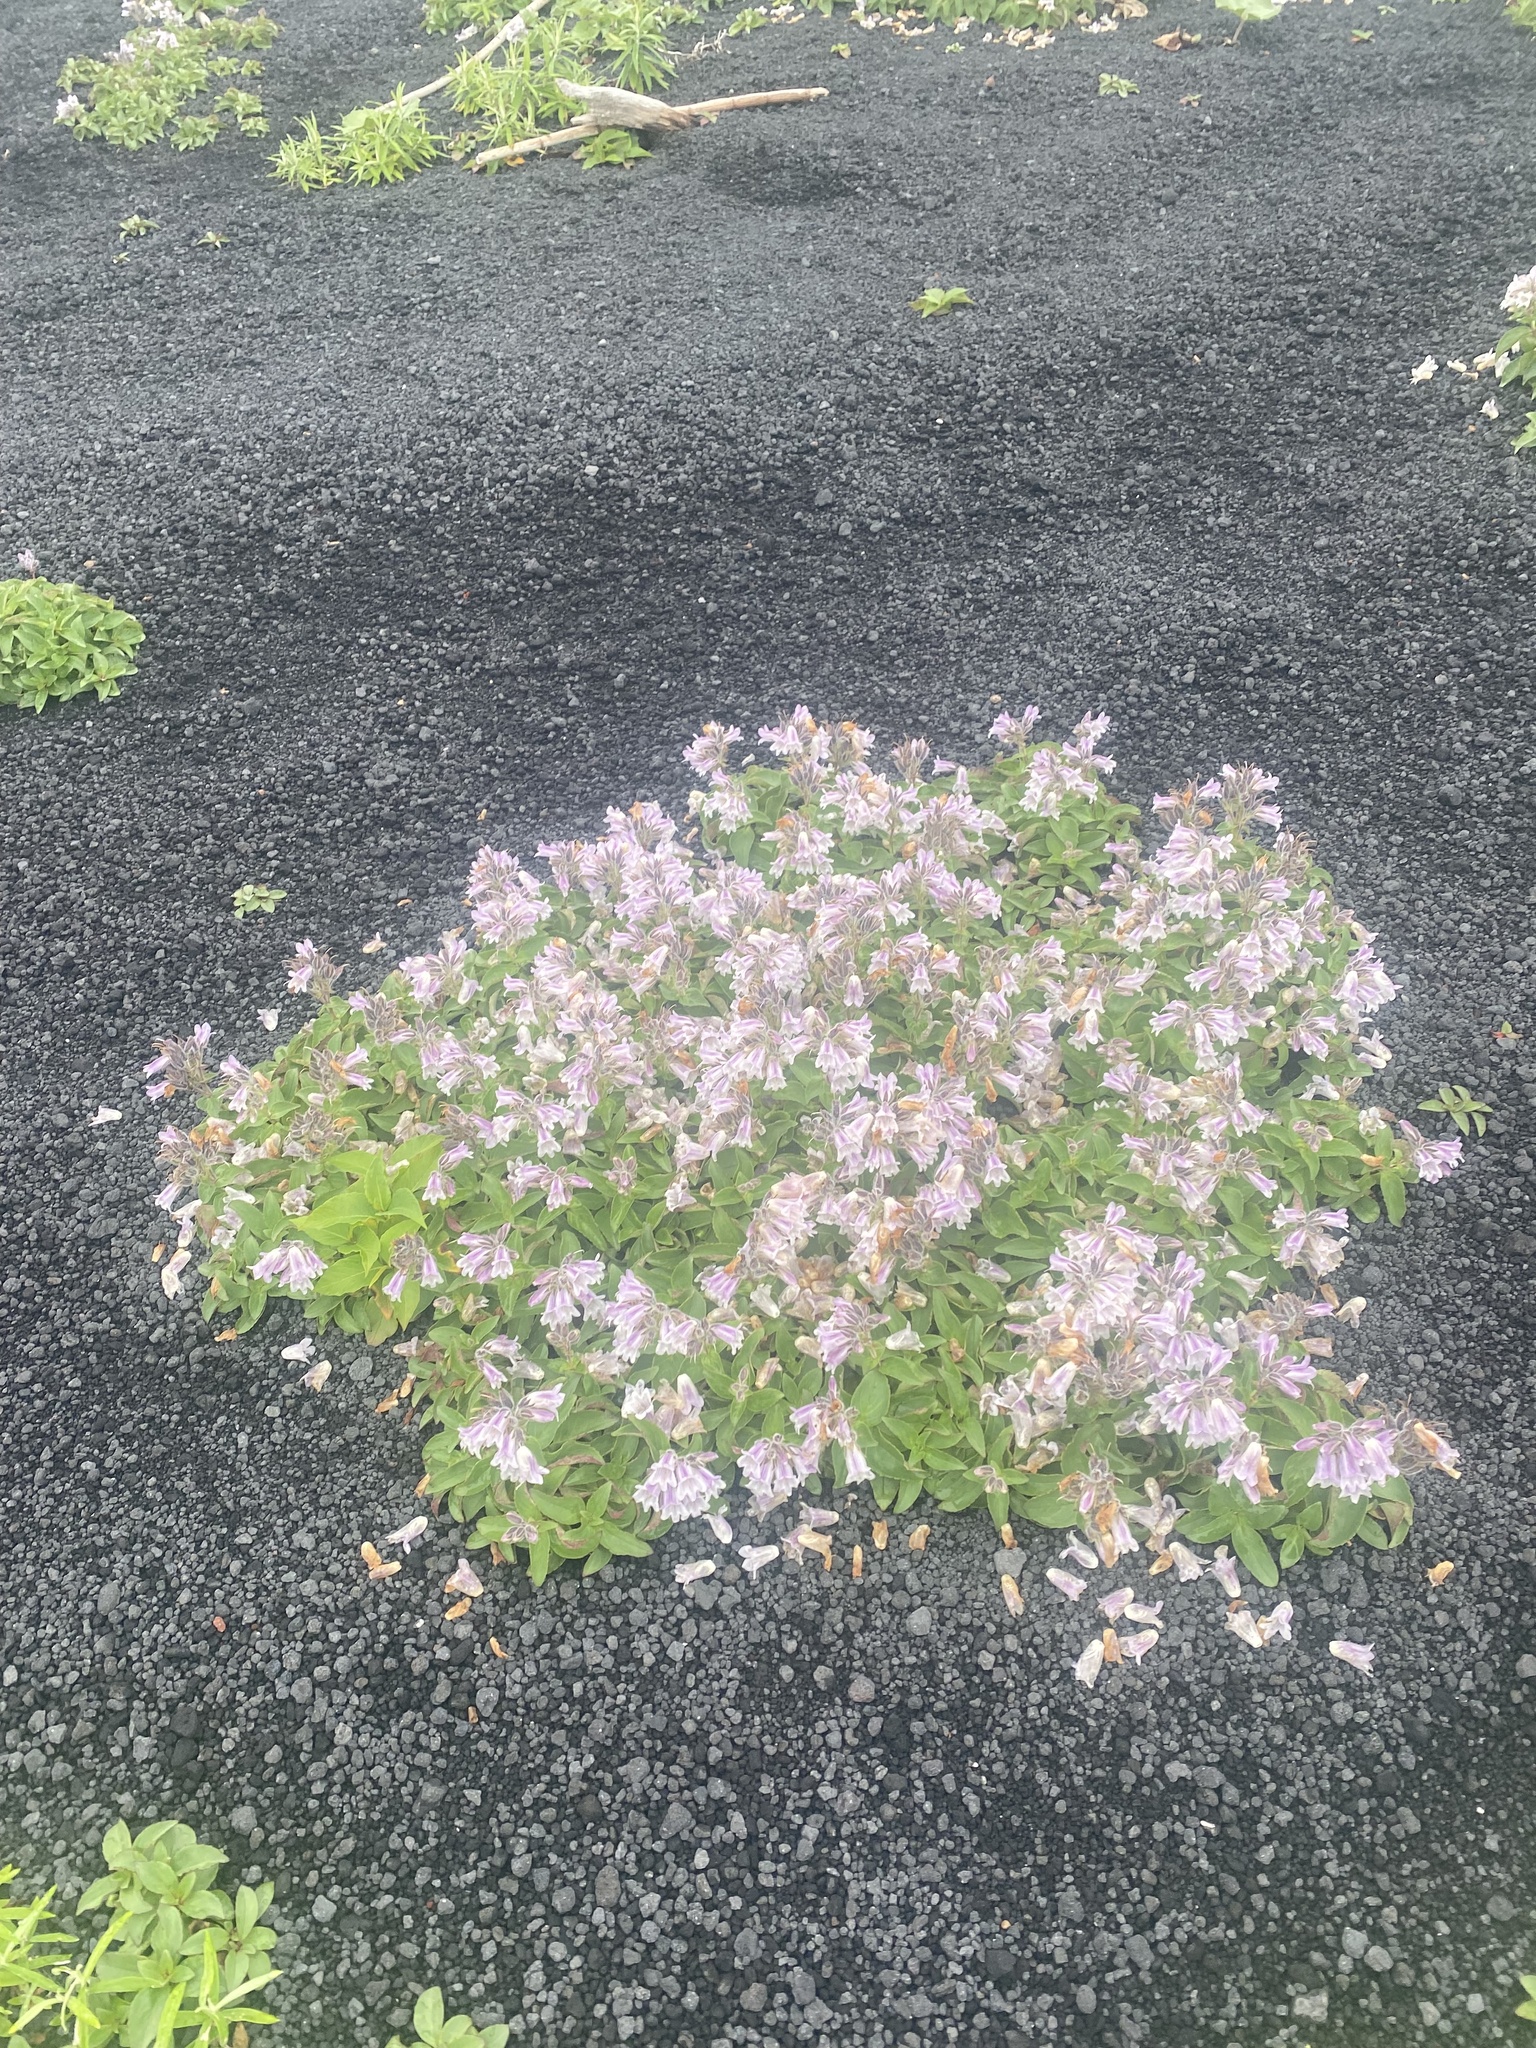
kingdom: Plantae
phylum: Tracheophyta
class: Magnoliopsida
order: Lamiales
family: Plantaginaceae
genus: Pennellianthus
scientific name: Pennellianthus frutescens
